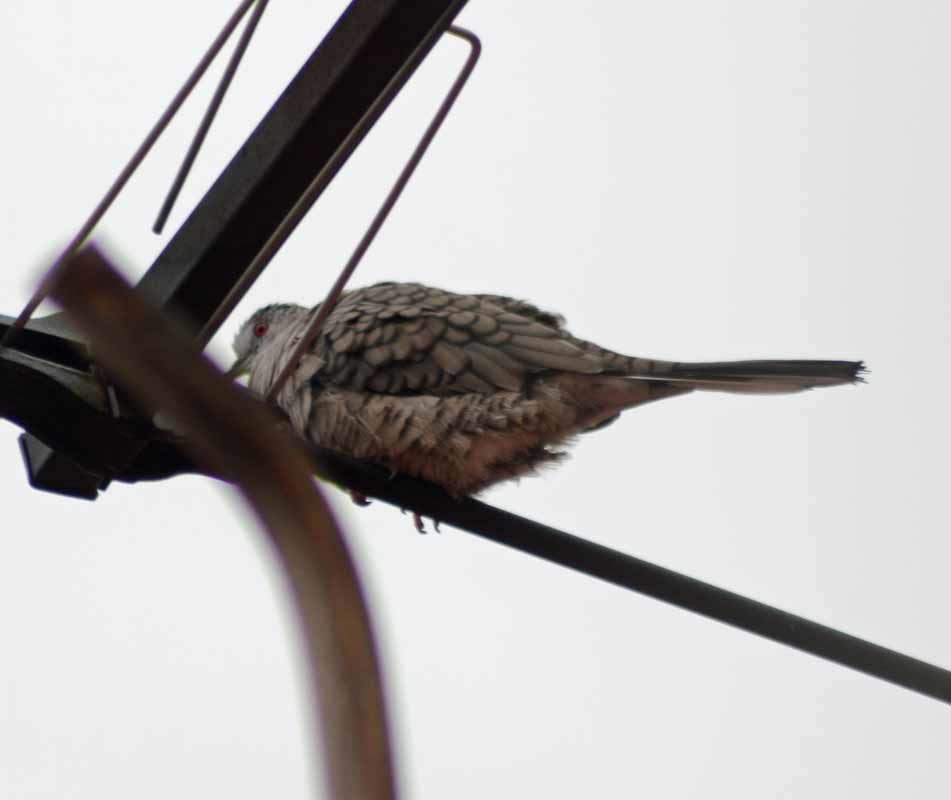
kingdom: Animalia
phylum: Chordata
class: Aves
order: Columbiformes
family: Columbidae
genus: Columbina
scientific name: Columbina inca
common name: Inca dove
